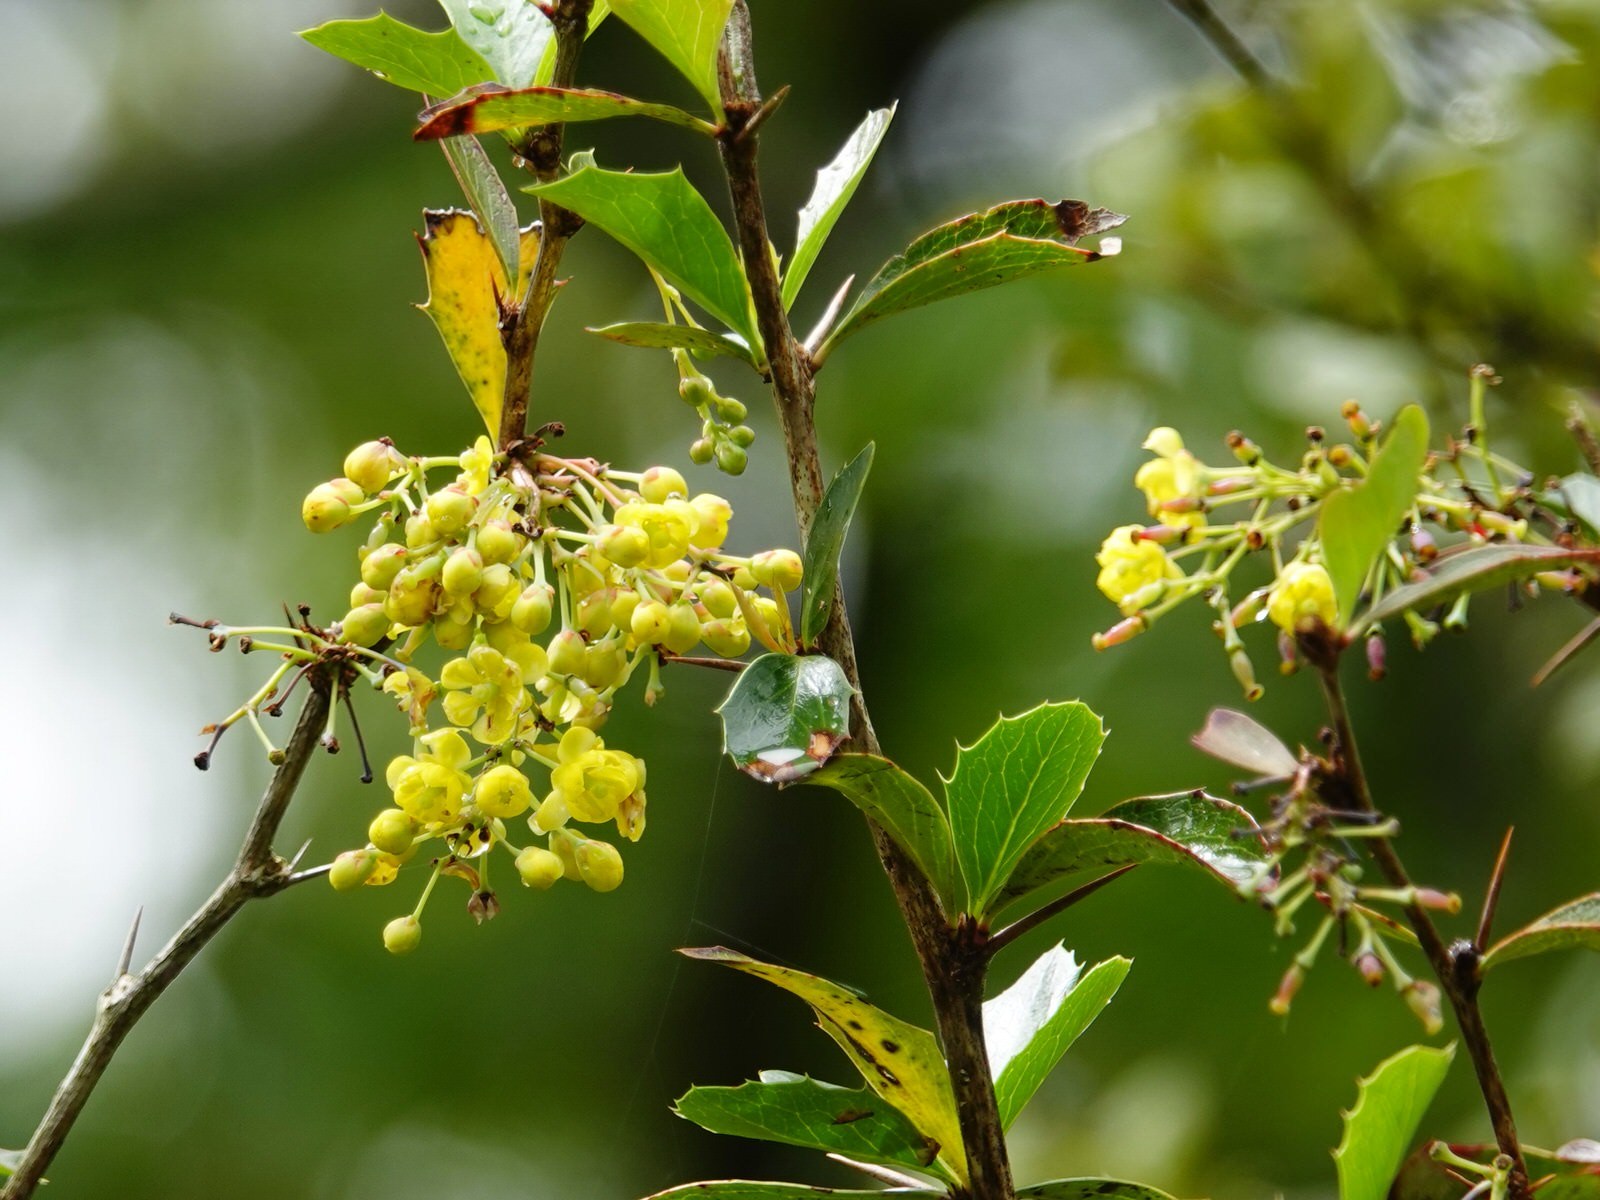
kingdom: Plantae
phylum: Tracheophyta
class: Magnoliopsida
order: Ranunculales
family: Berberidaceae
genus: Berberis
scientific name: Berberis glaucocarpa
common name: Great barberry
